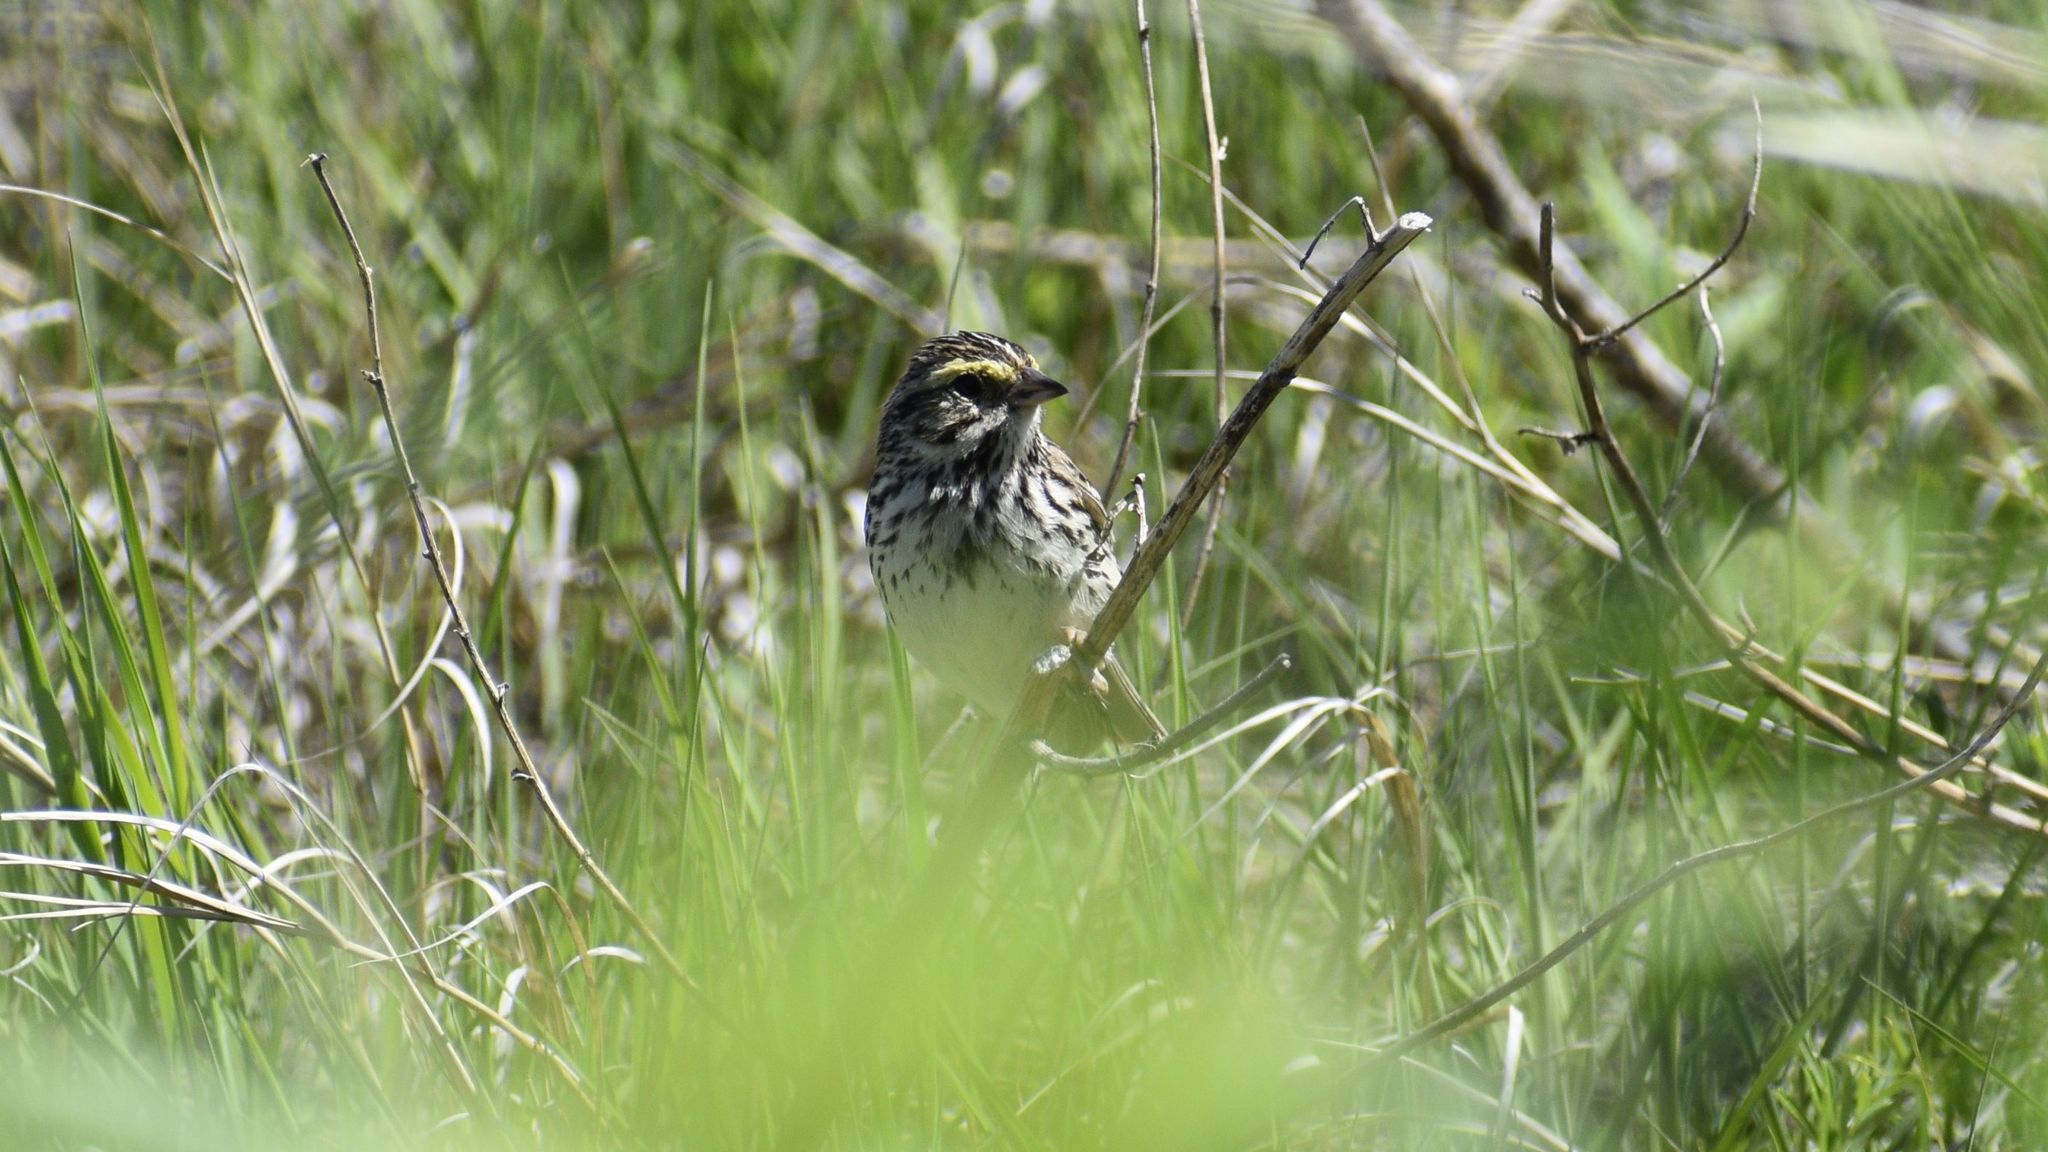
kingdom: Animalia
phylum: Chordata
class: Aves
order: Passeriformes
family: Passerellidae
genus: Passerculus
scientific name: Passerculus sandwichensis
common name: Savannah sparrow
